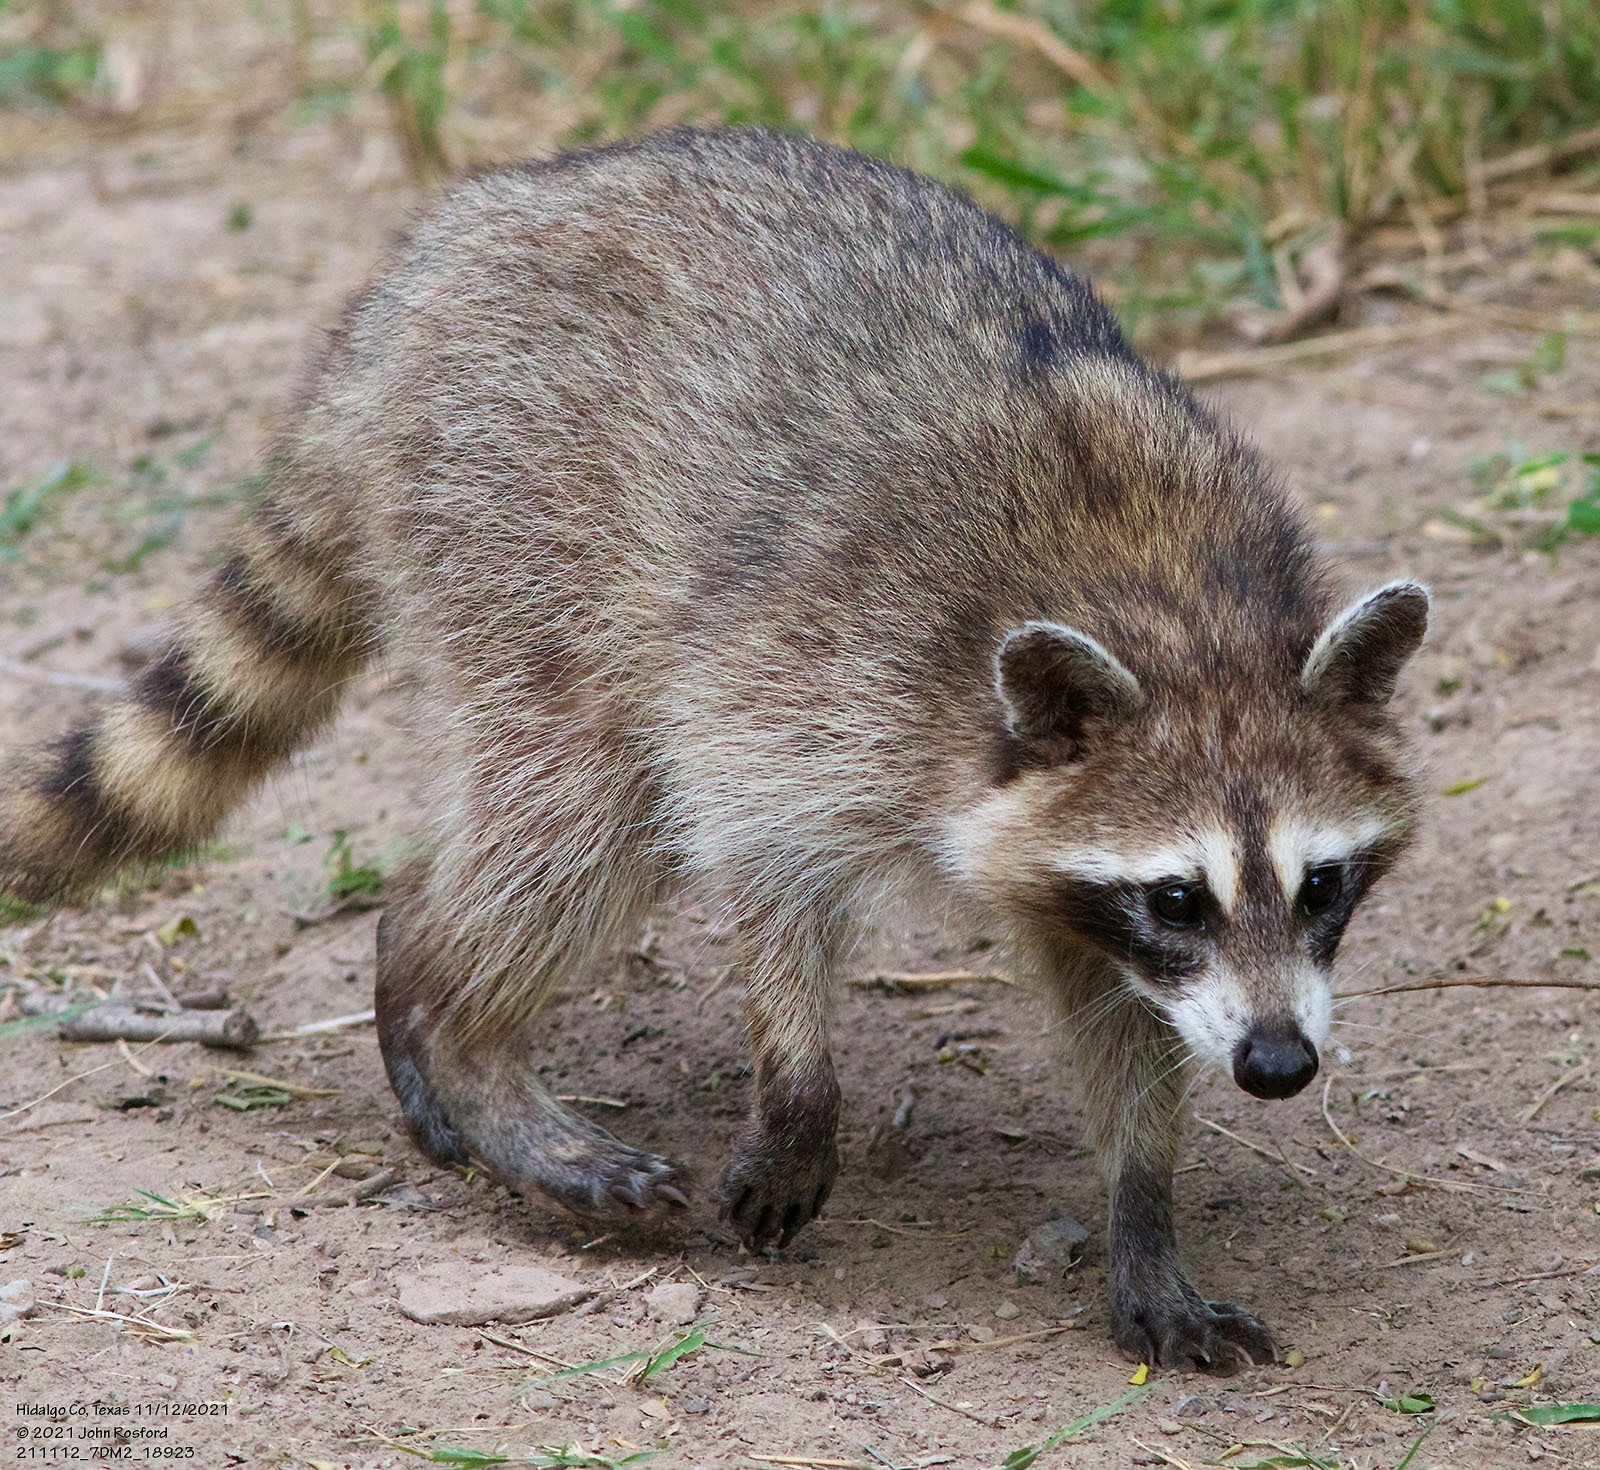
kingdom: Animalia
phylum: Chordata
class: Mammalia
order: Carnivora
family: Procyonidae
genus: Procyon
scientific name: Procyon lotor
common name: Raccoon
